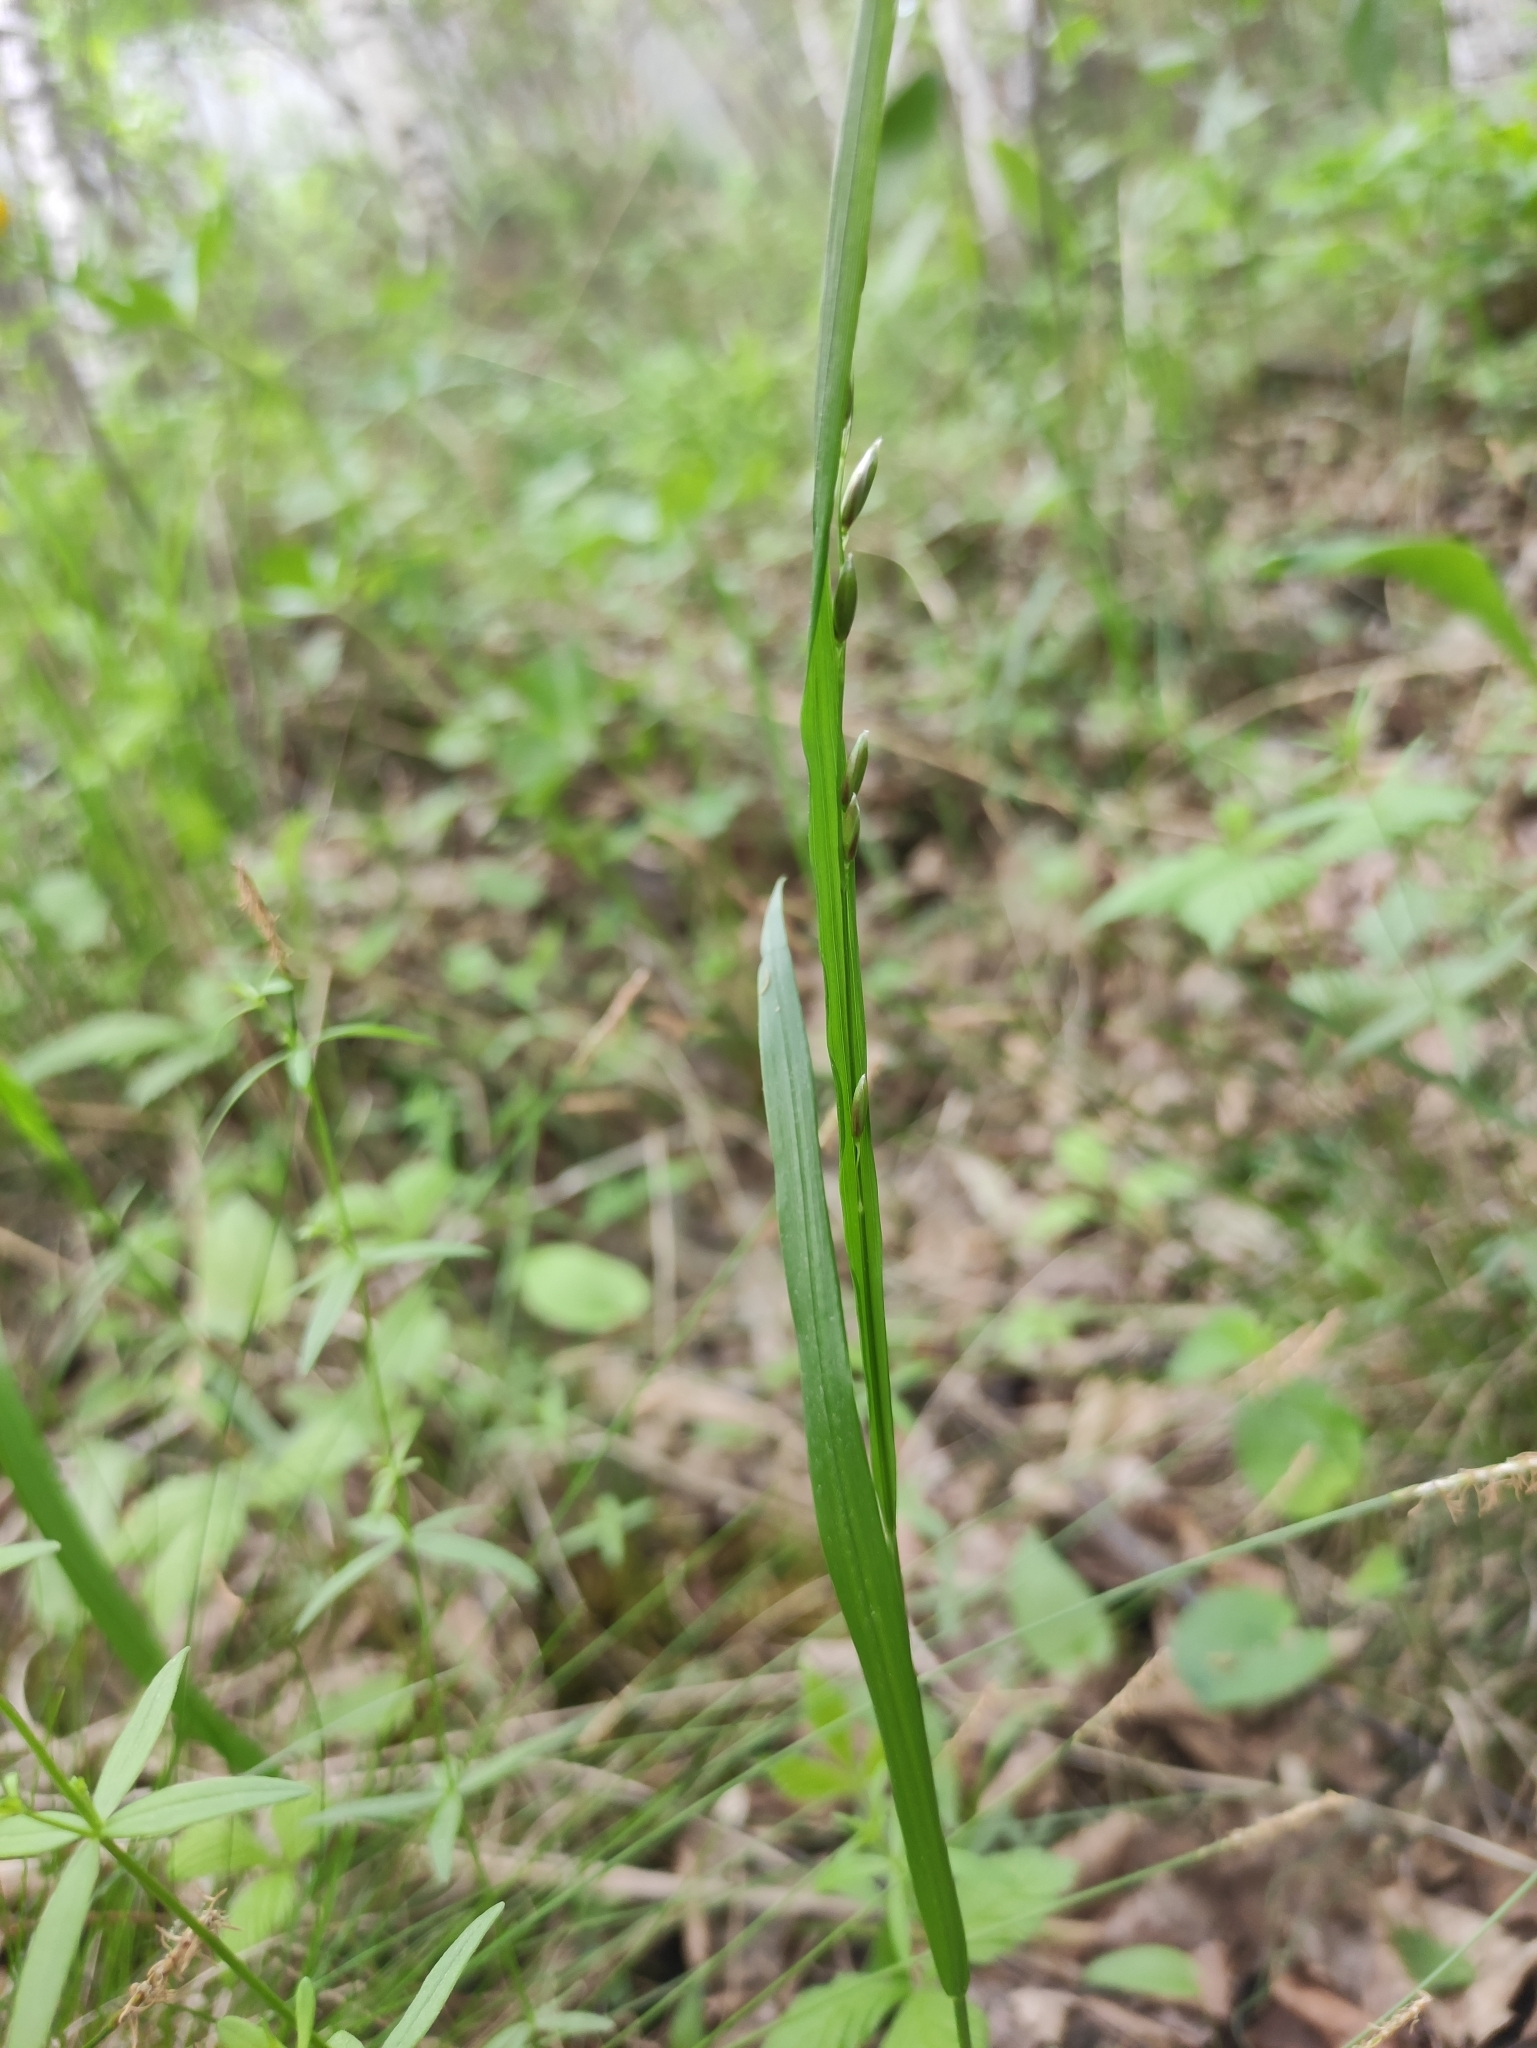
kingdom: Plantae
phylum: Tracheophyta
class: Liliopsida
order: Poales
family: Poaceae
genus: Melica
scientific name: Melica nutans
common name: Mountain melick
